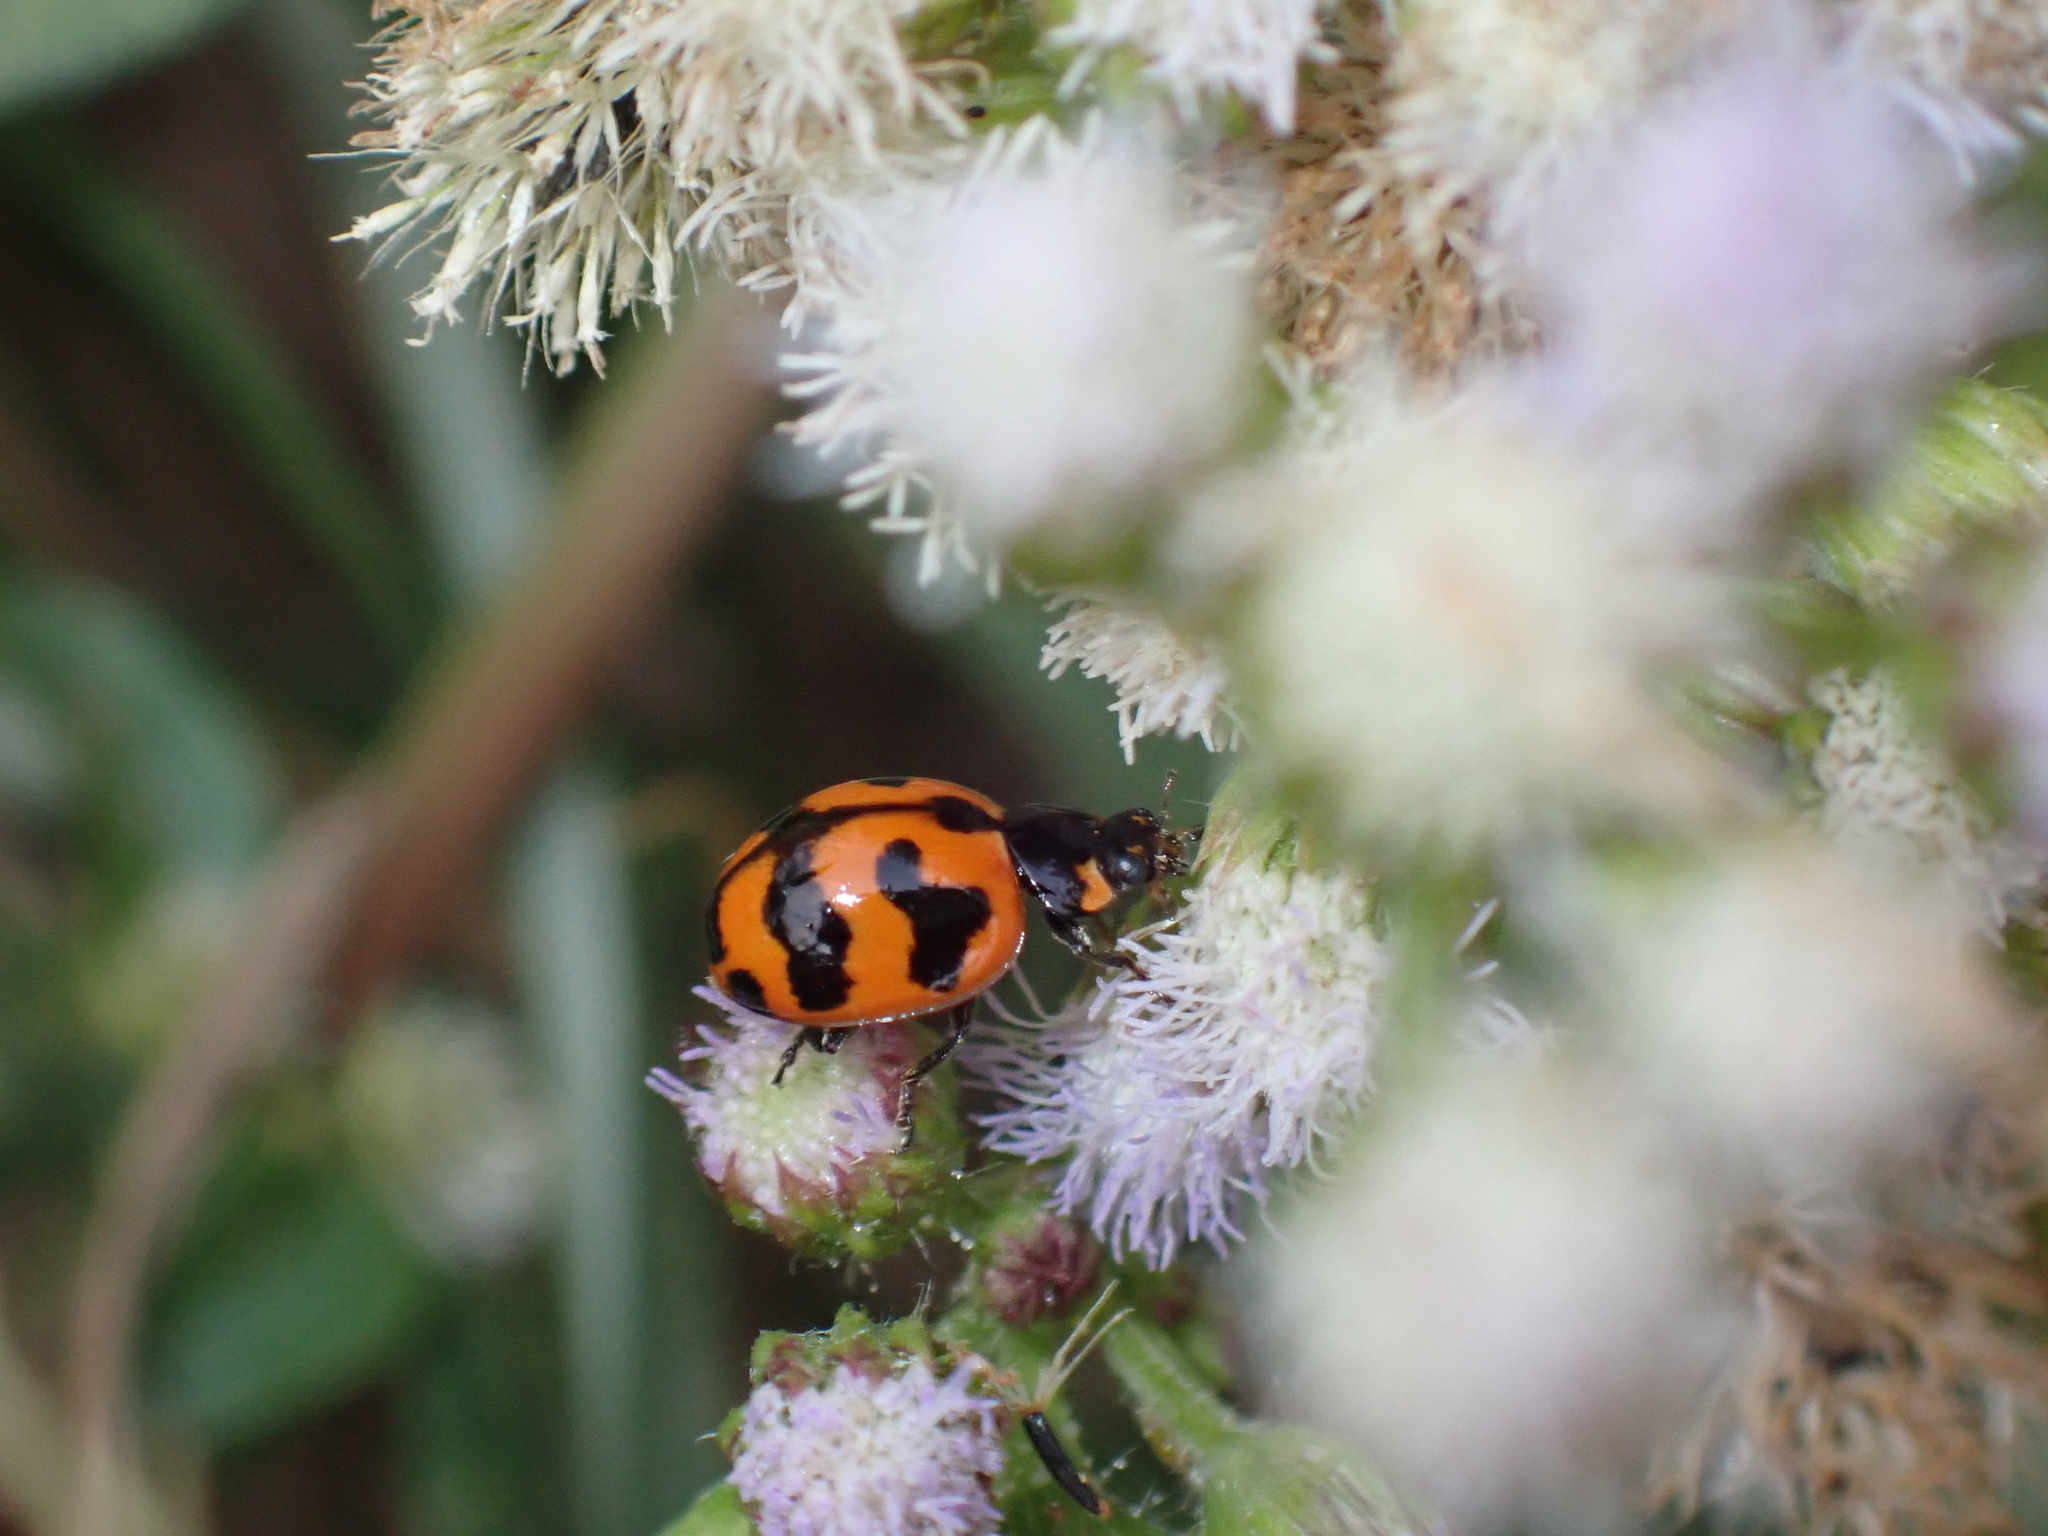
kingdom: Animalia
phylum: Arthropoda
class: Insecta
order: Coleoptera
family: Coccinellidae
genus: Coccinella
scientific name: Coccinella transversalis
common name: Transverse lady beetle
